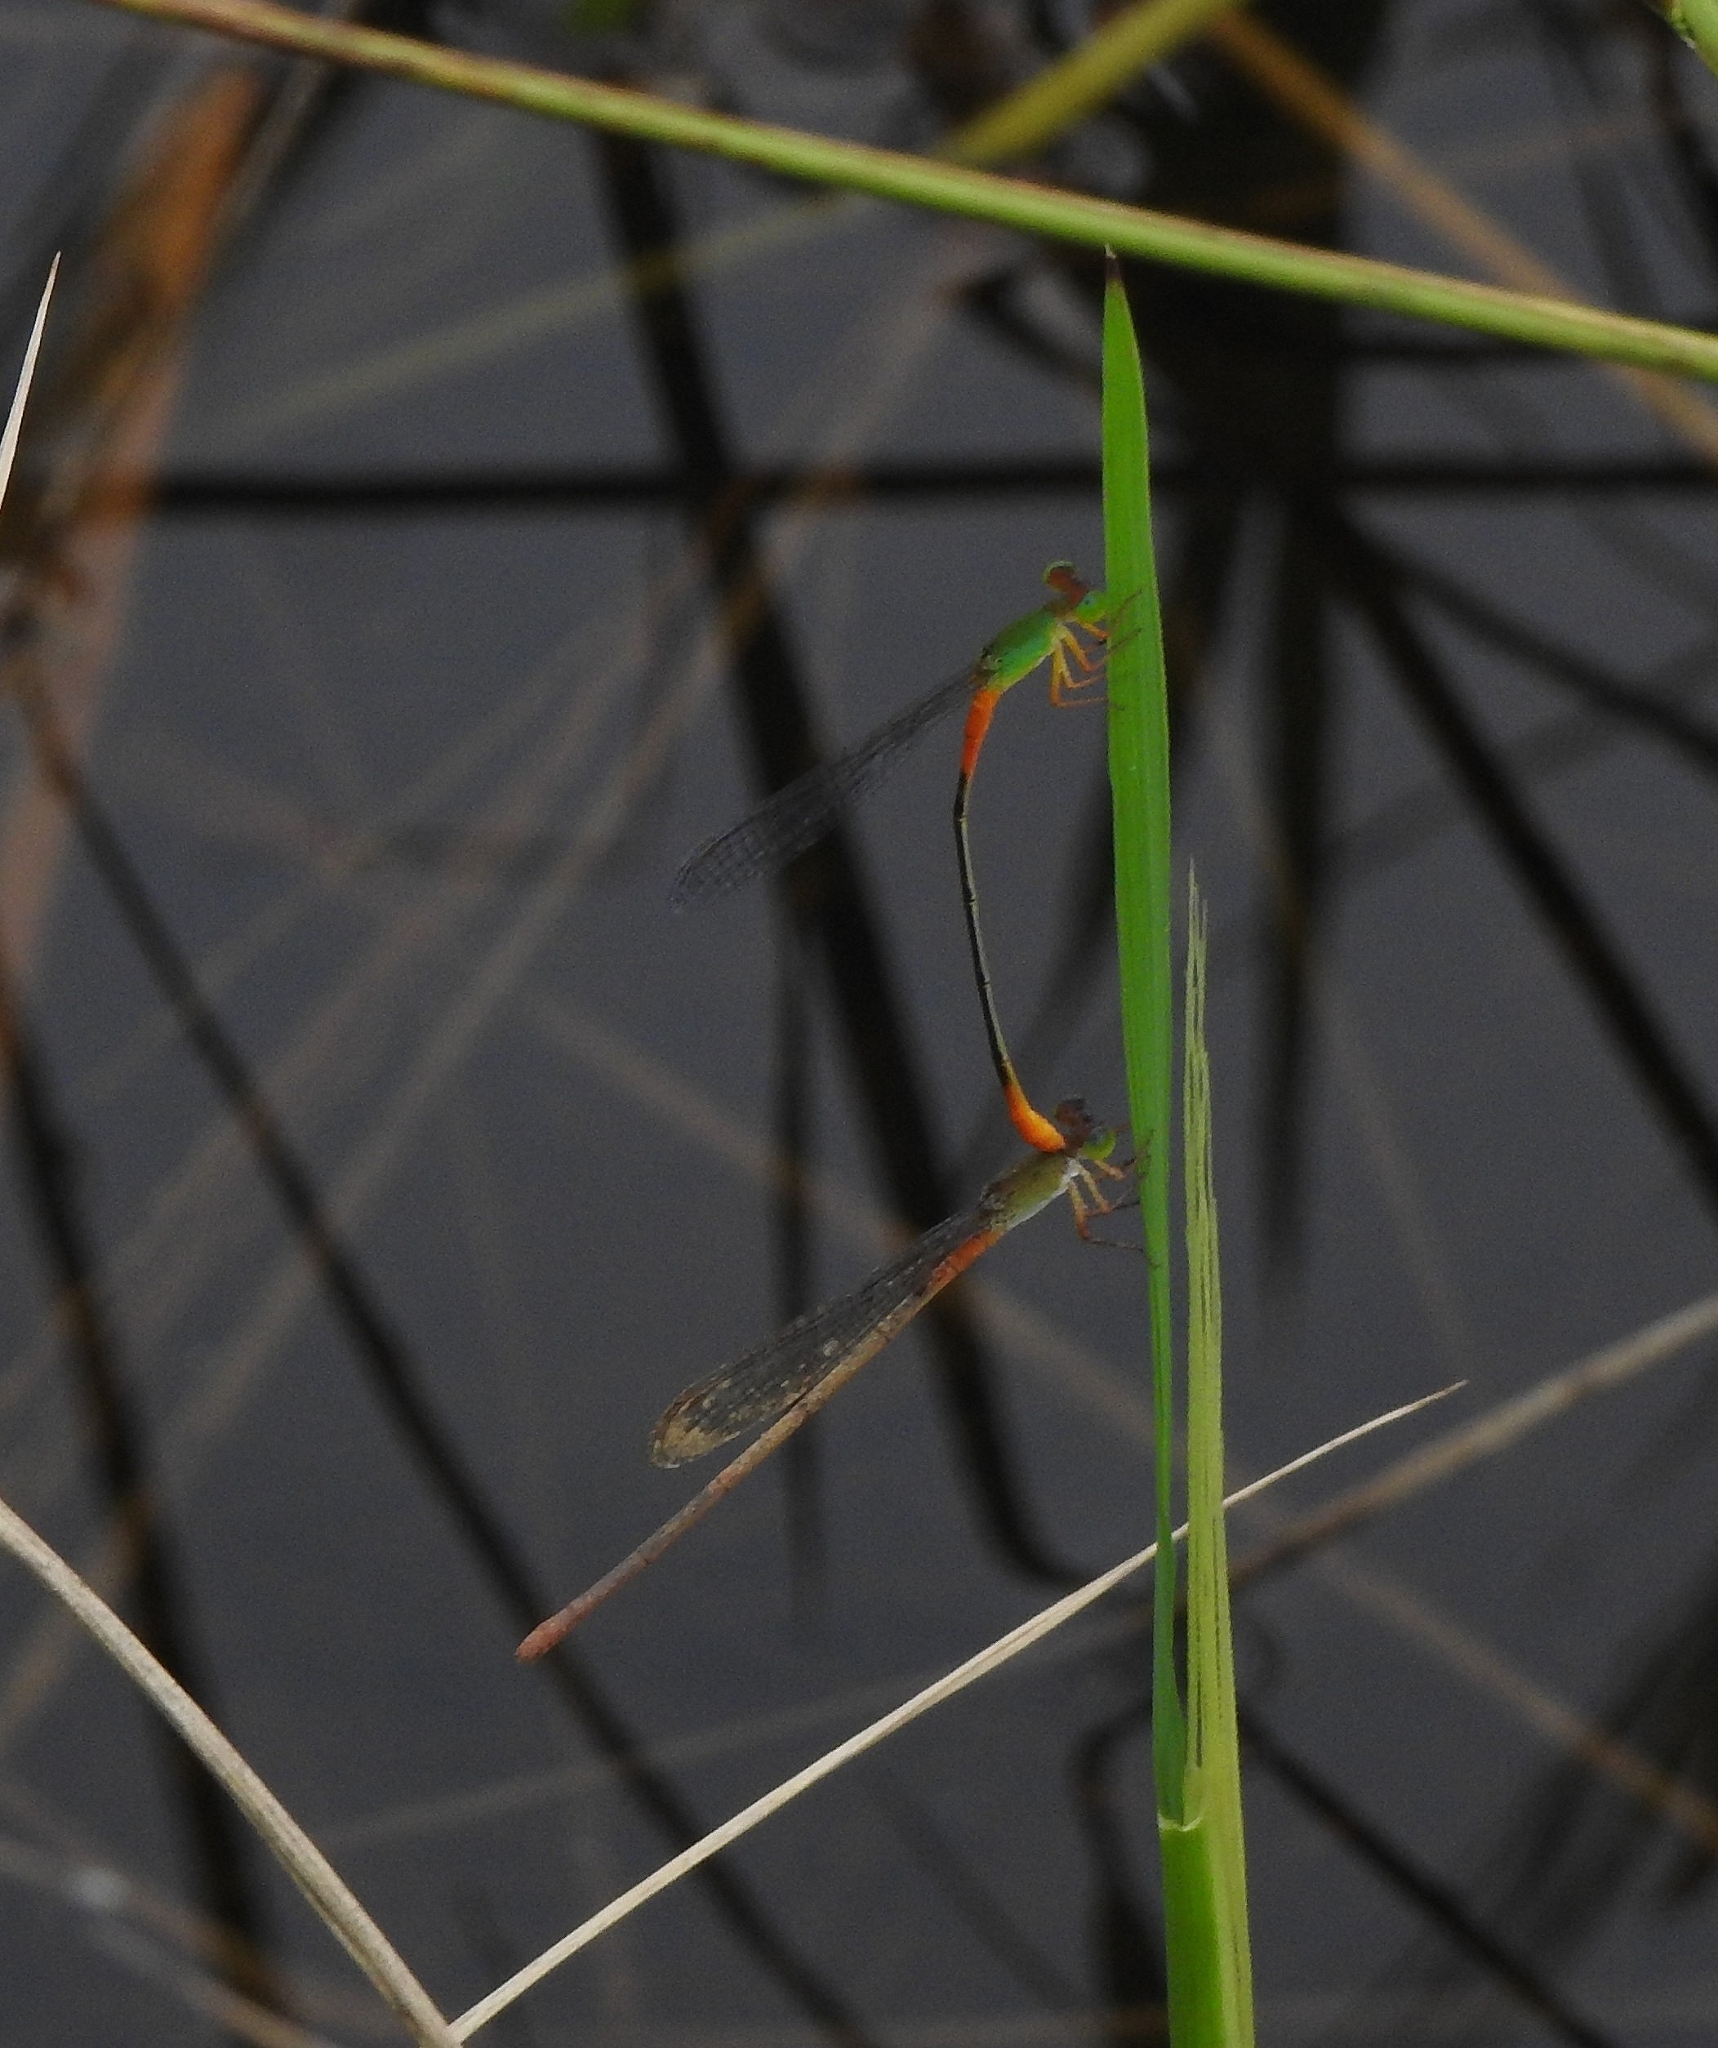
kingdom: Animalia
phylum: Arthropoda
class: Insecta
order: Odonata
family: Coenagrionidae
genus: Ceriagrion
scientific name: Ceriagrion cerinorubellum
